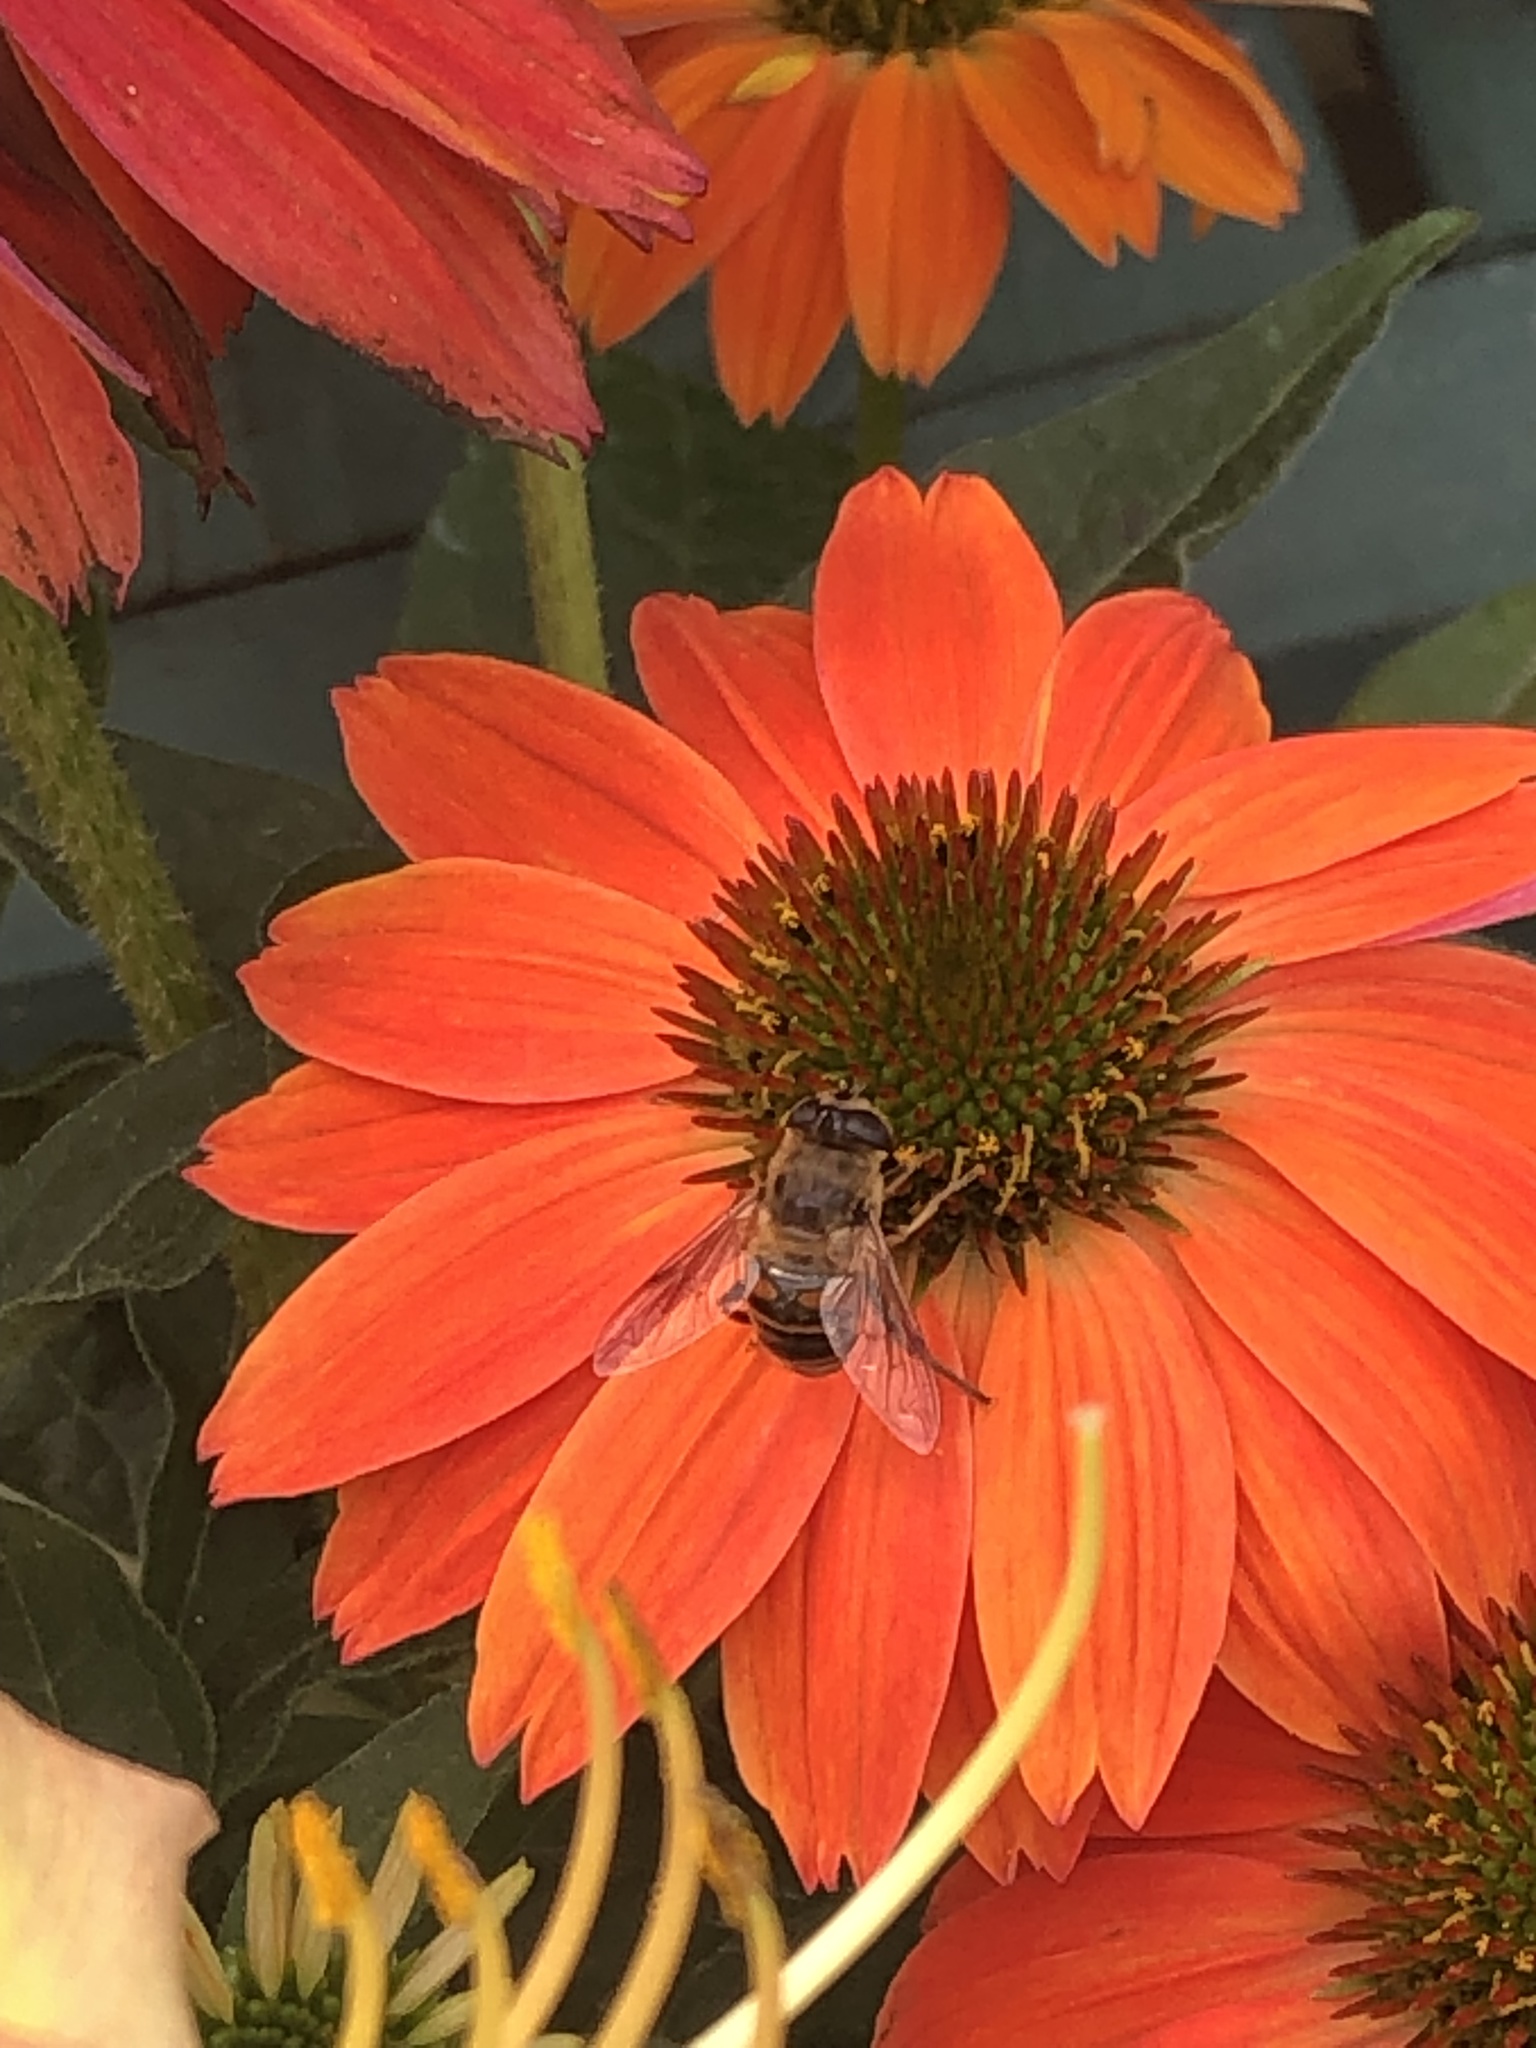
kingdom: Animalia
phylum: Arthropoda
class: Insecta
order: Diptera
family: Syrphidae
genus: Eristalis
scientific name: Eristalis tenax
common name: Drone fly
